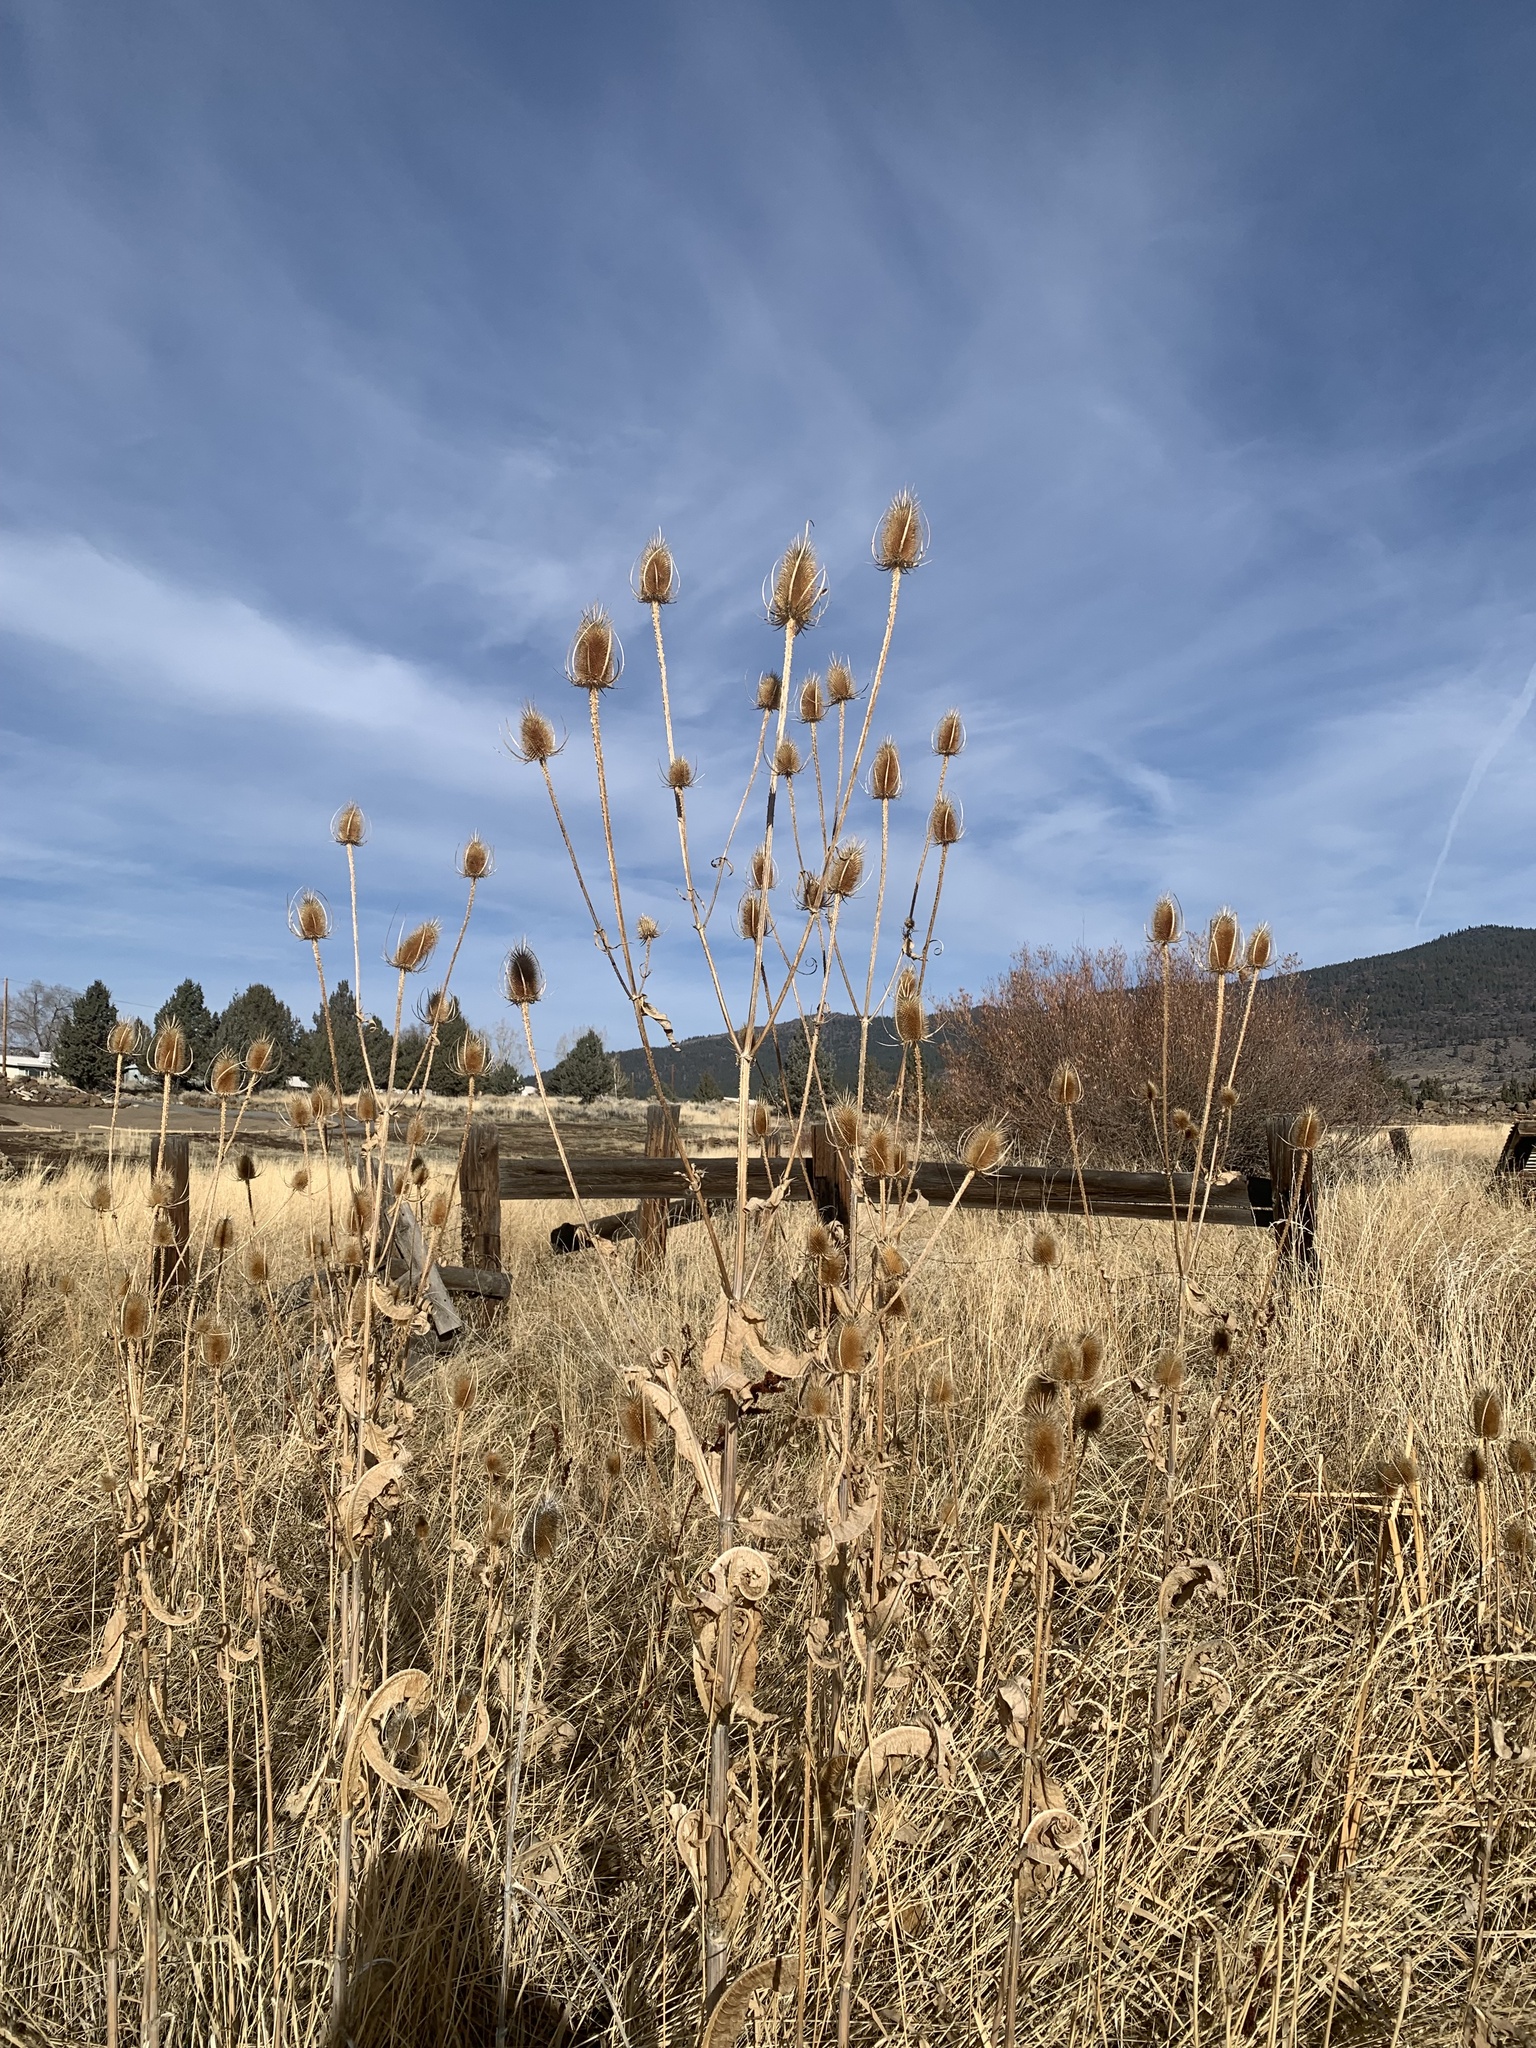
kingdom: Plantae
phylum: Tracheophyta
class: Magnoliopsida
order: Dipsacales
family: Caprifoliaceae
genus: Dipsacus
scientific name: Dipsacus fullonum
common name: Teasel
